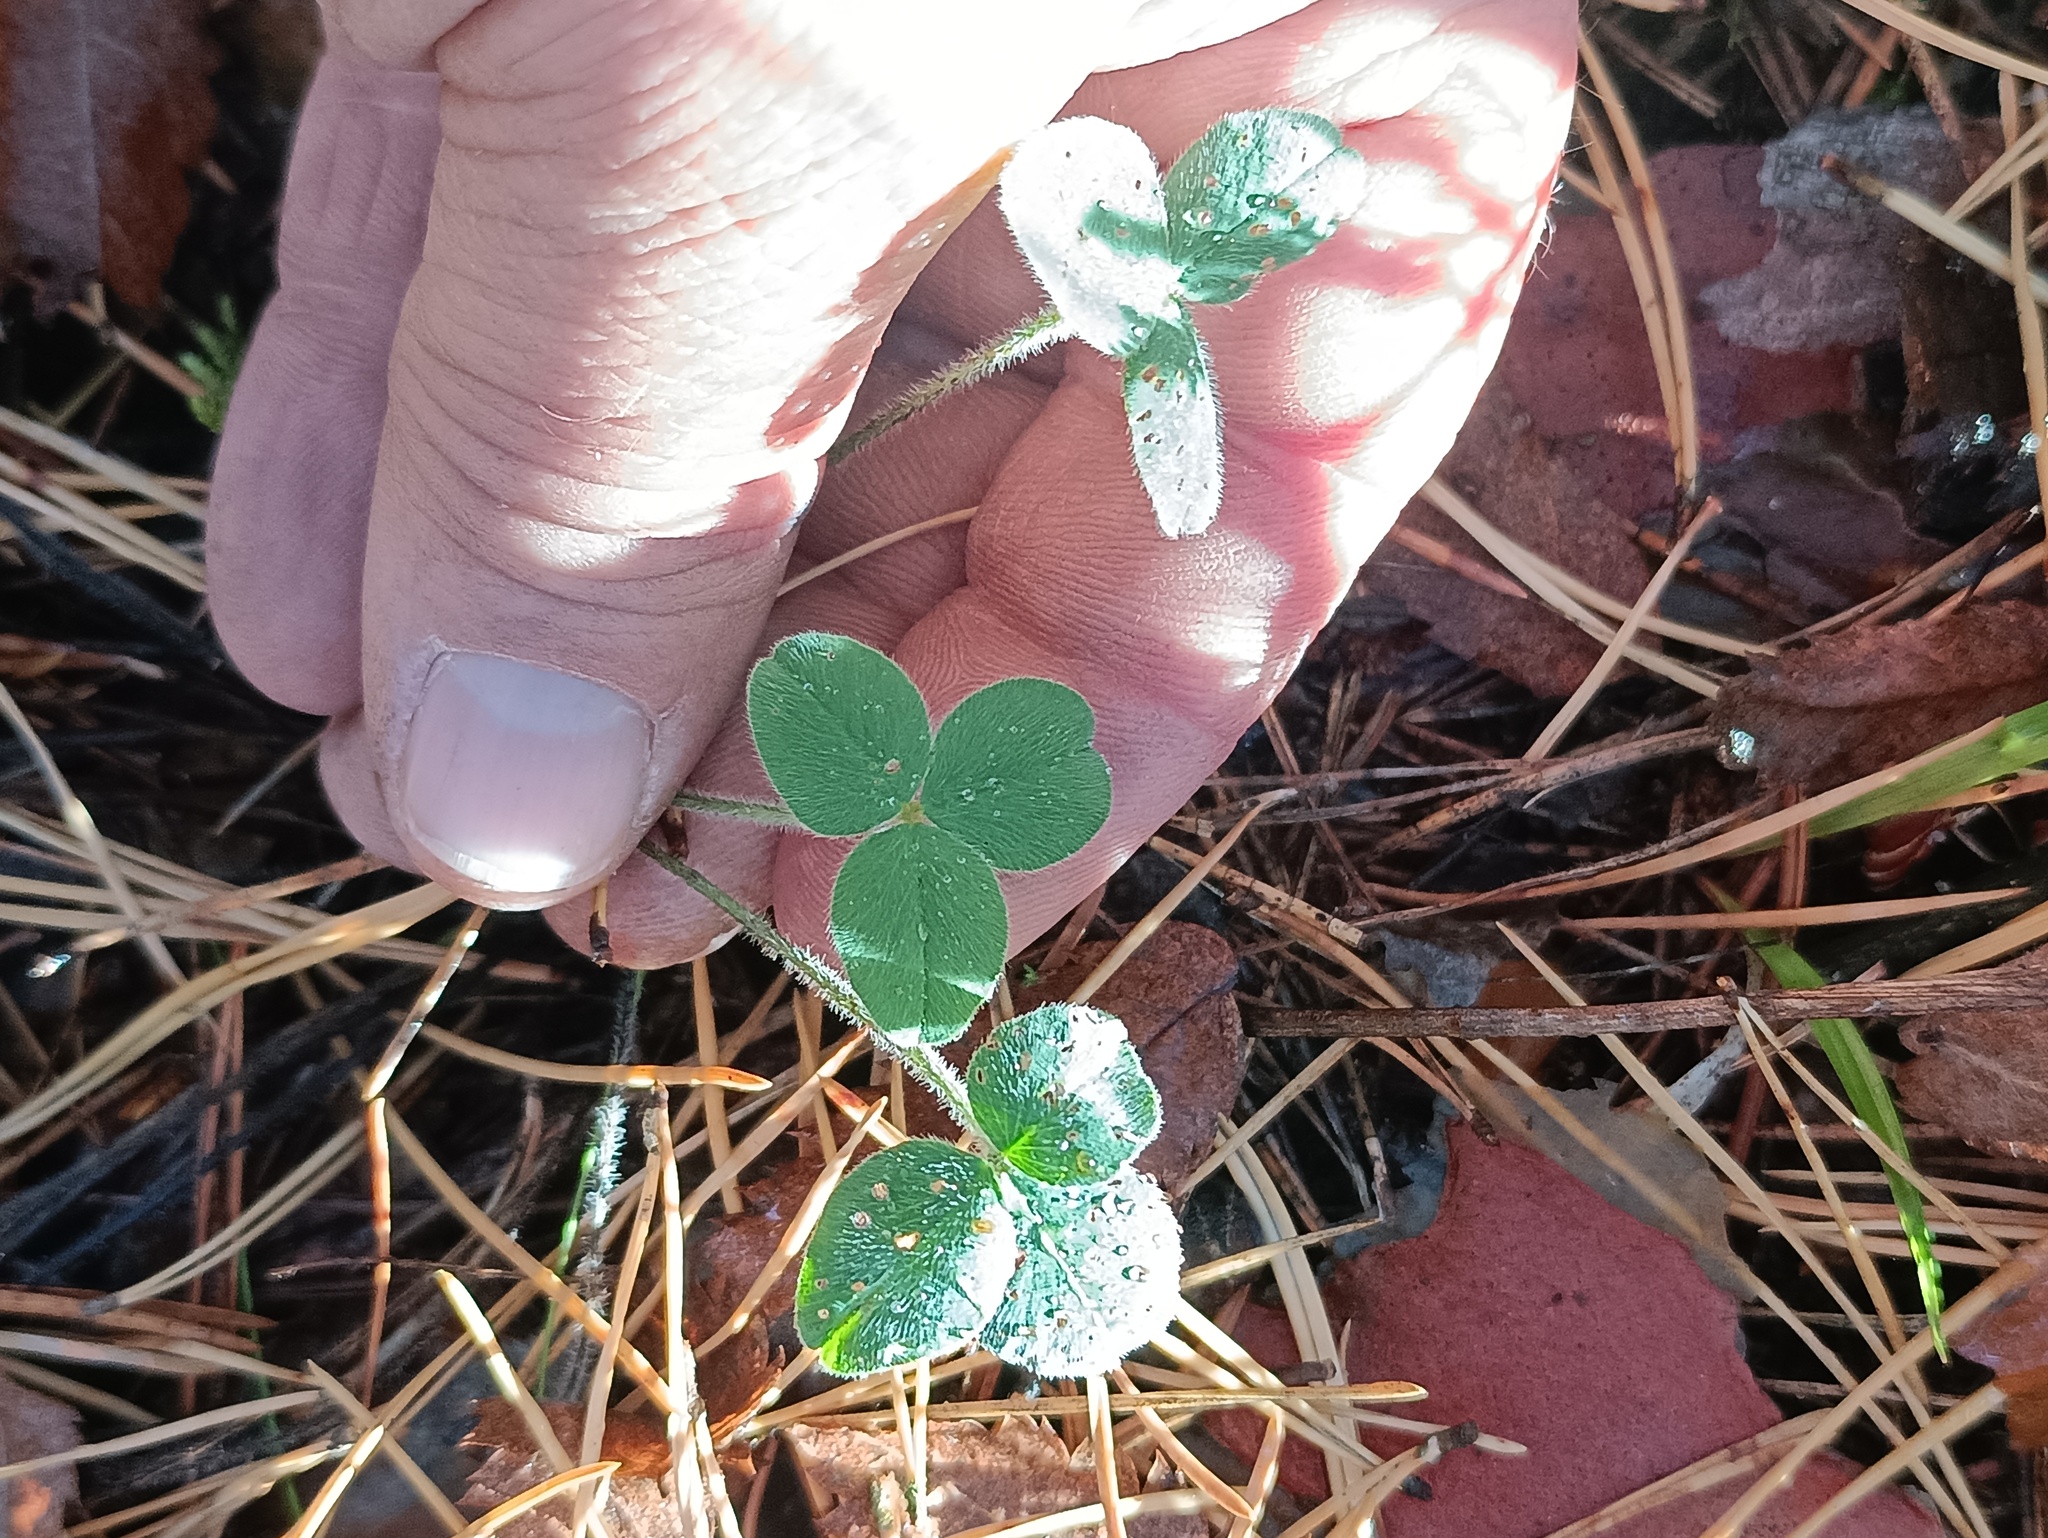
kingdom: Plantae
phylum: Tracheophyta
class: Magnoliopsida
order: Fabales
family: Fabaceae
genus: Trifolium
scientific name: Trifolium pratense
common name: Red clover
